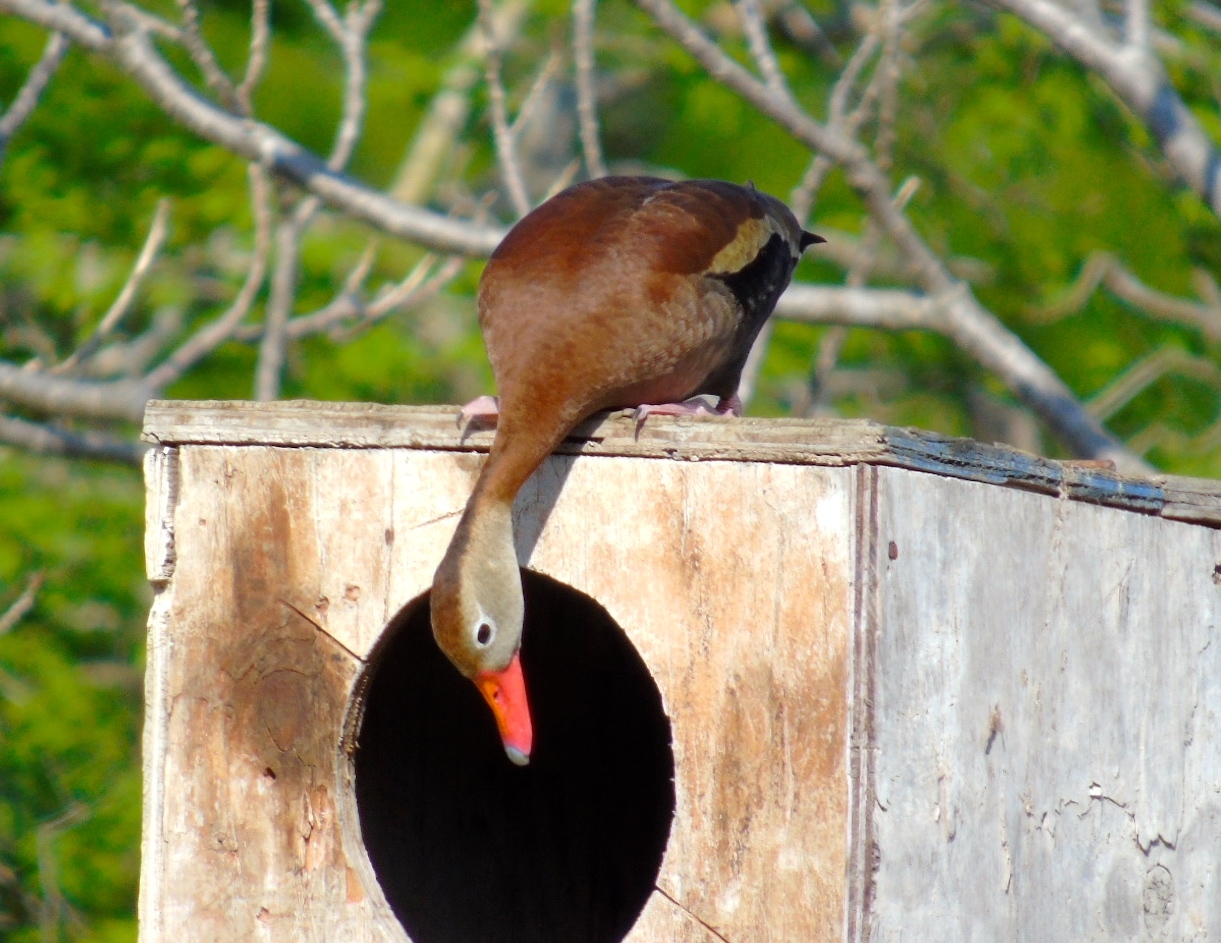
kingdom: Animalia
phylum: Chordata
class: Aves
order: Anseriformes
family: Anatidae
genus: Dendrocygna
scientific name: Dendrocygna autumnalis
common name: Black-bellied whistling duck
